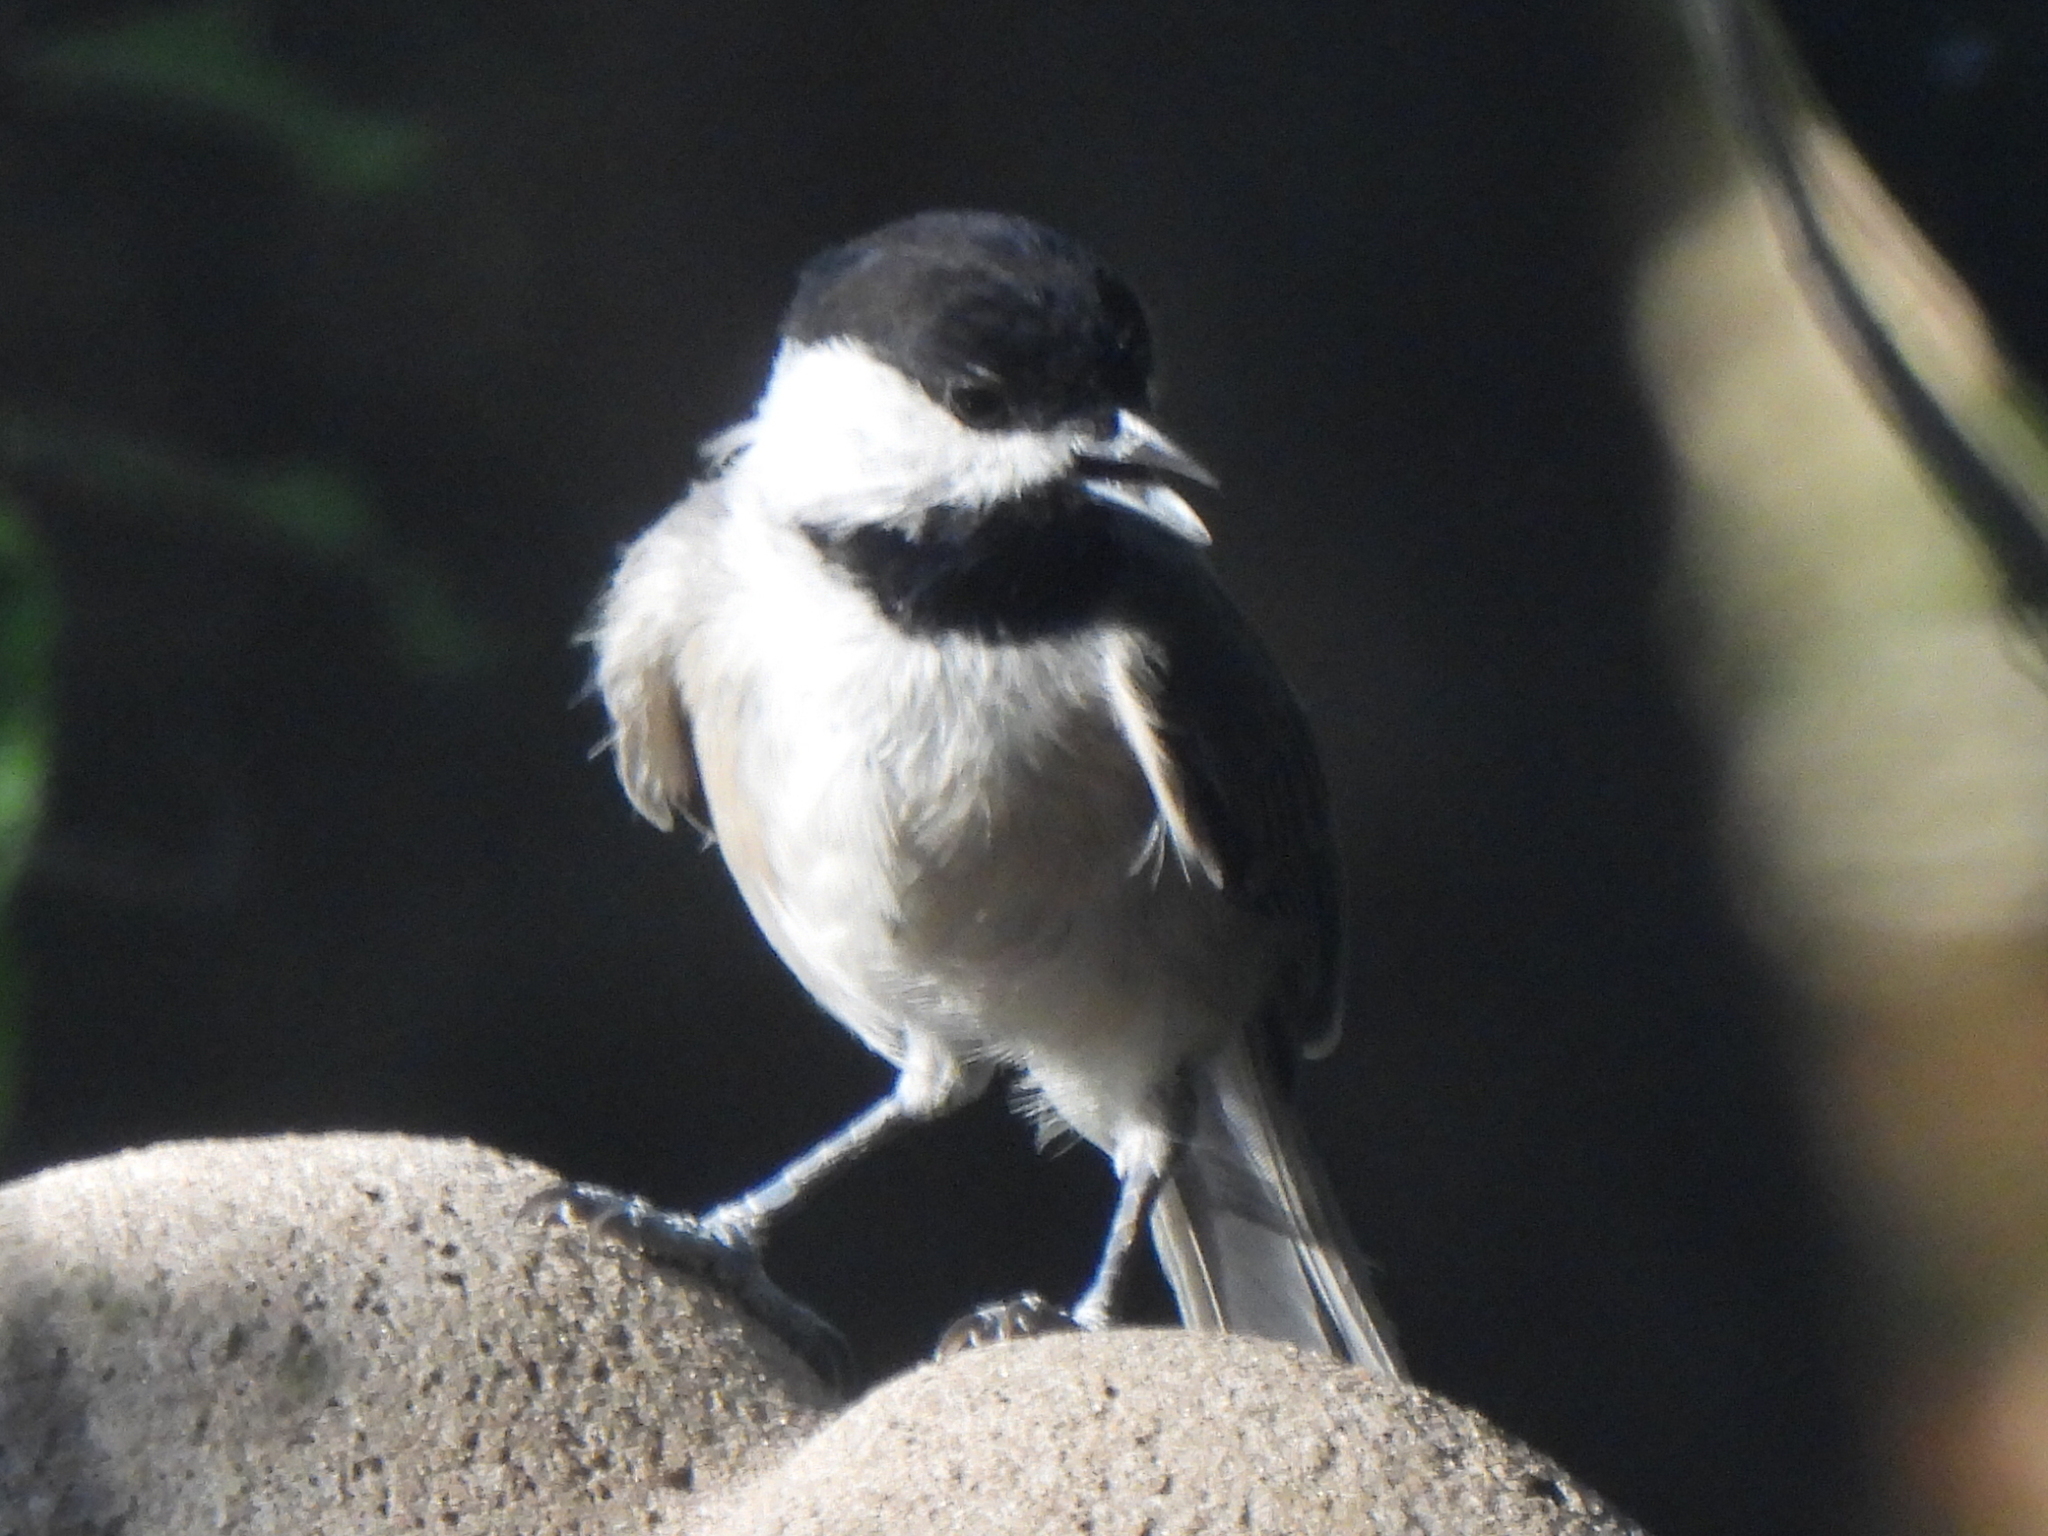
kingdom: Animalia
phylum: Chordata
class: Aves
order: Passeriformes
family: Paridae
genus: Poecile
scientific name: Poecile carolinensis
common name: Carolina chickadee
